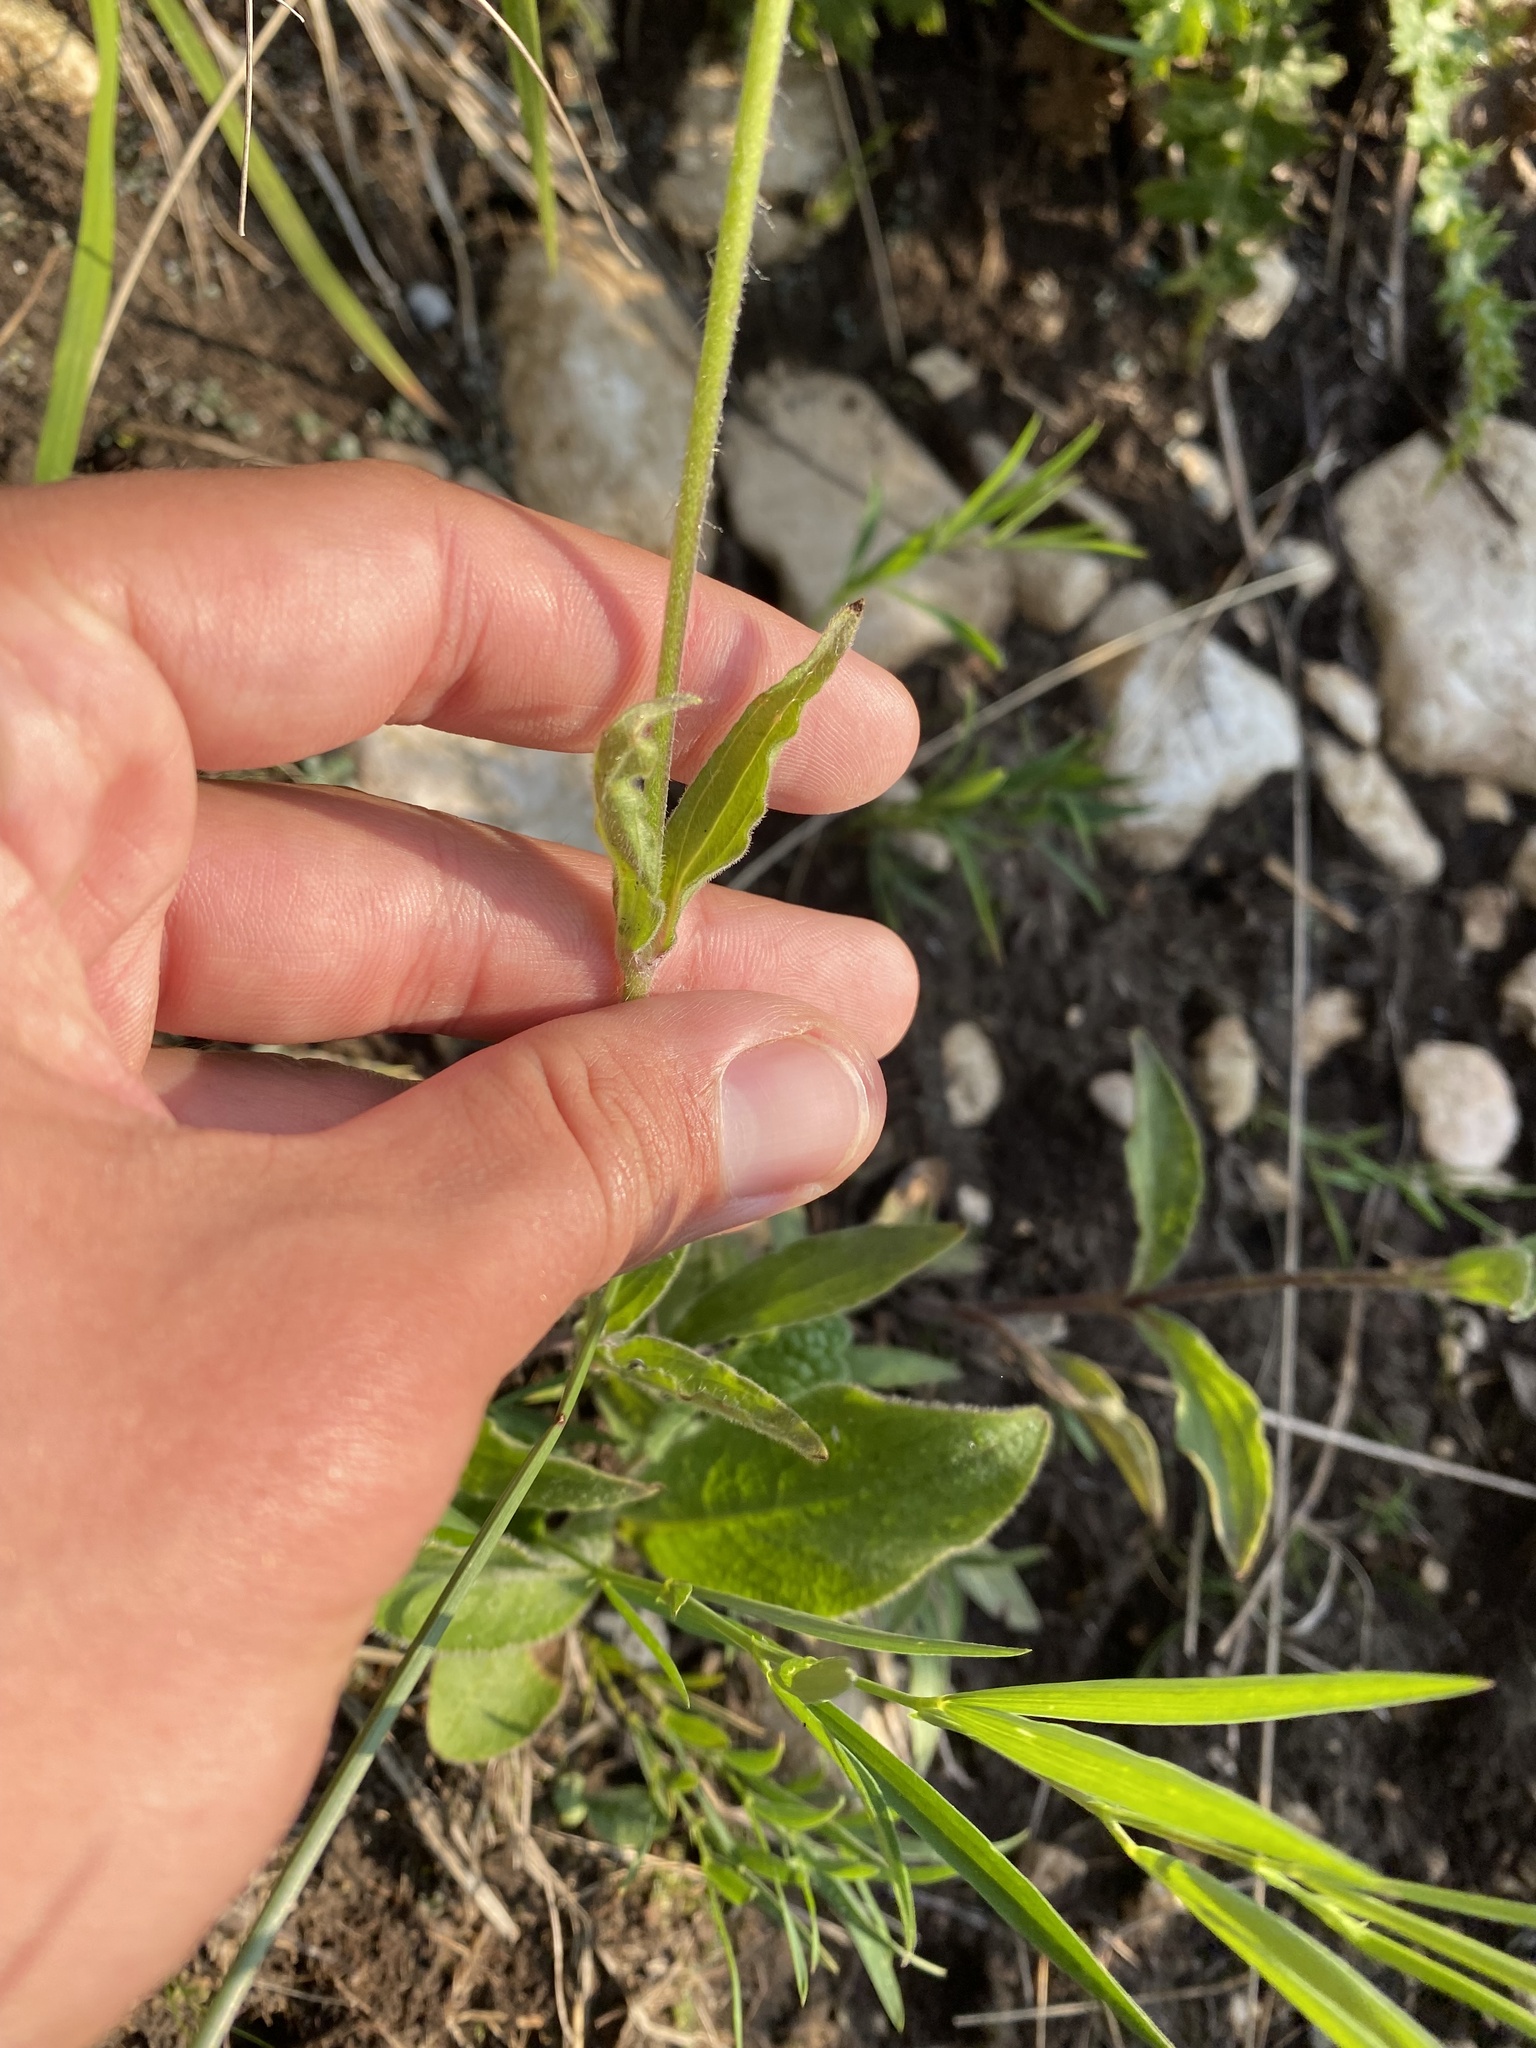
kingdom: Plantae
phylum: Tracheophyta
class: Magnoliopsida
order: Caryophyllales
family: Caryophyllaceae
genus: Silene
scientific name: Silene latifolia
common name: White campion
